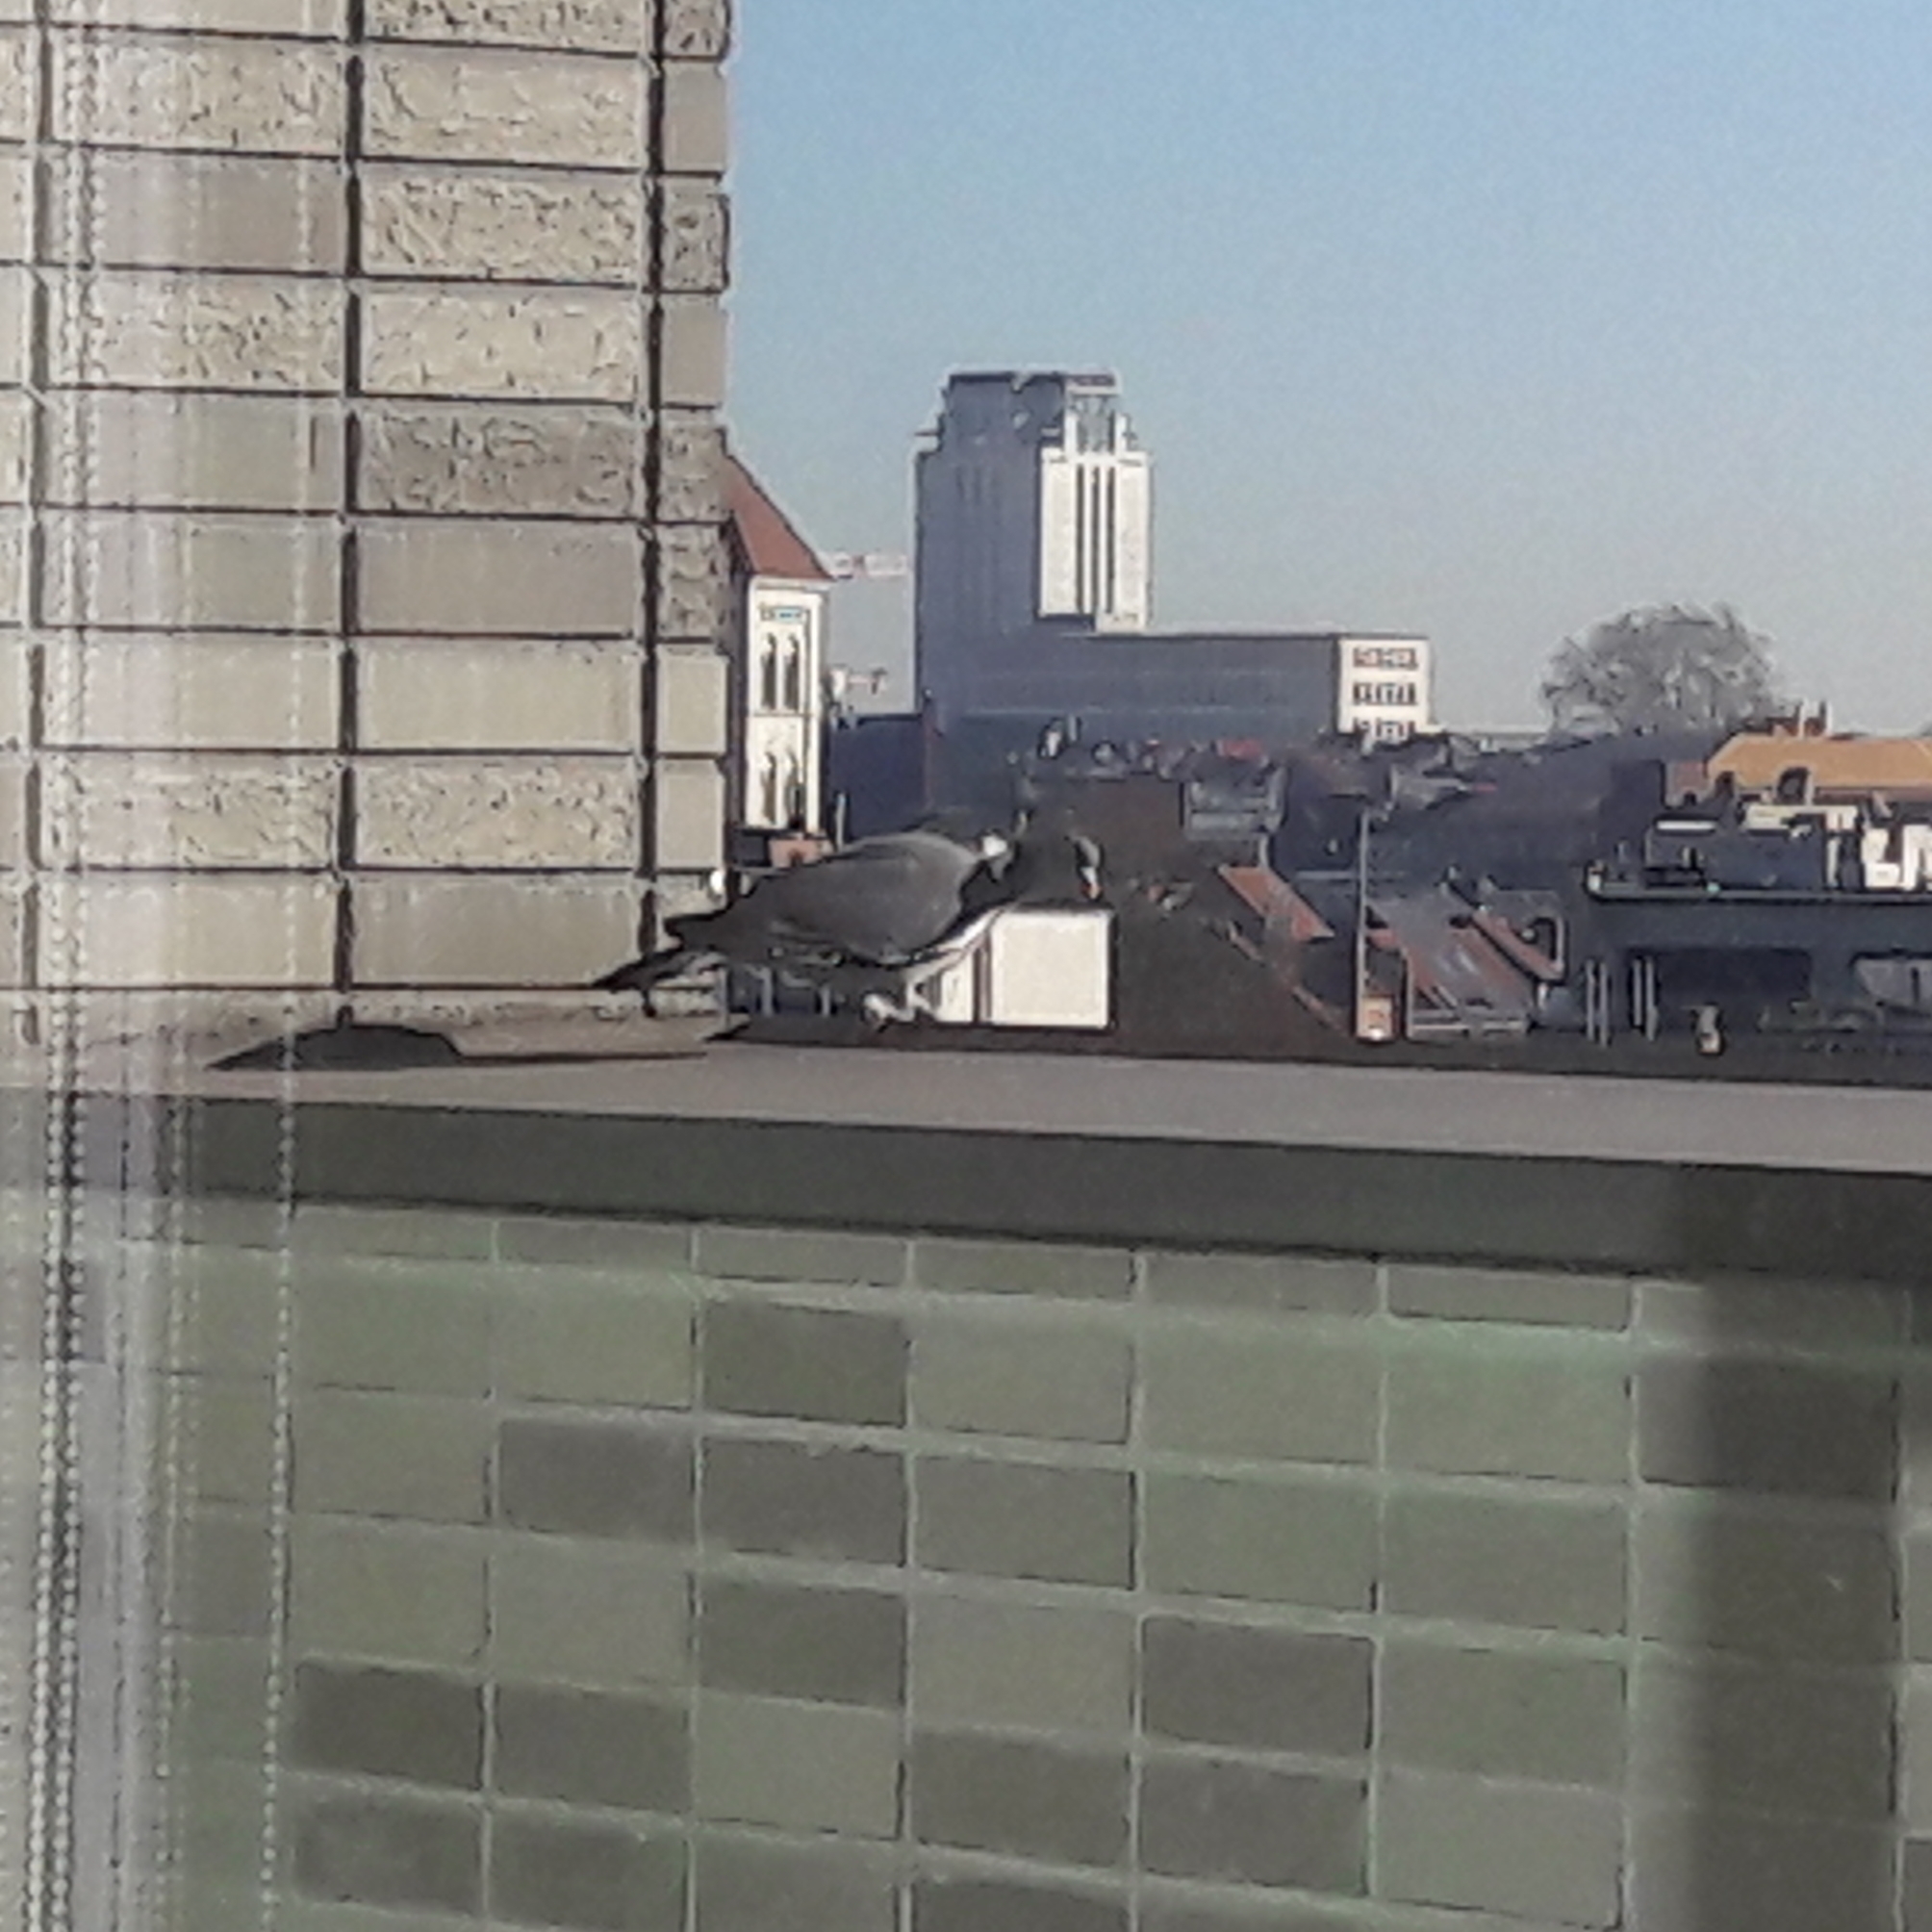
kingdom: Animalia
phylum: Chordata
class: Aves
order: Columbiformes
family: Columbidae
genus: Columba
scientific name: Columba palumbus
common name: Common wood pigeon
